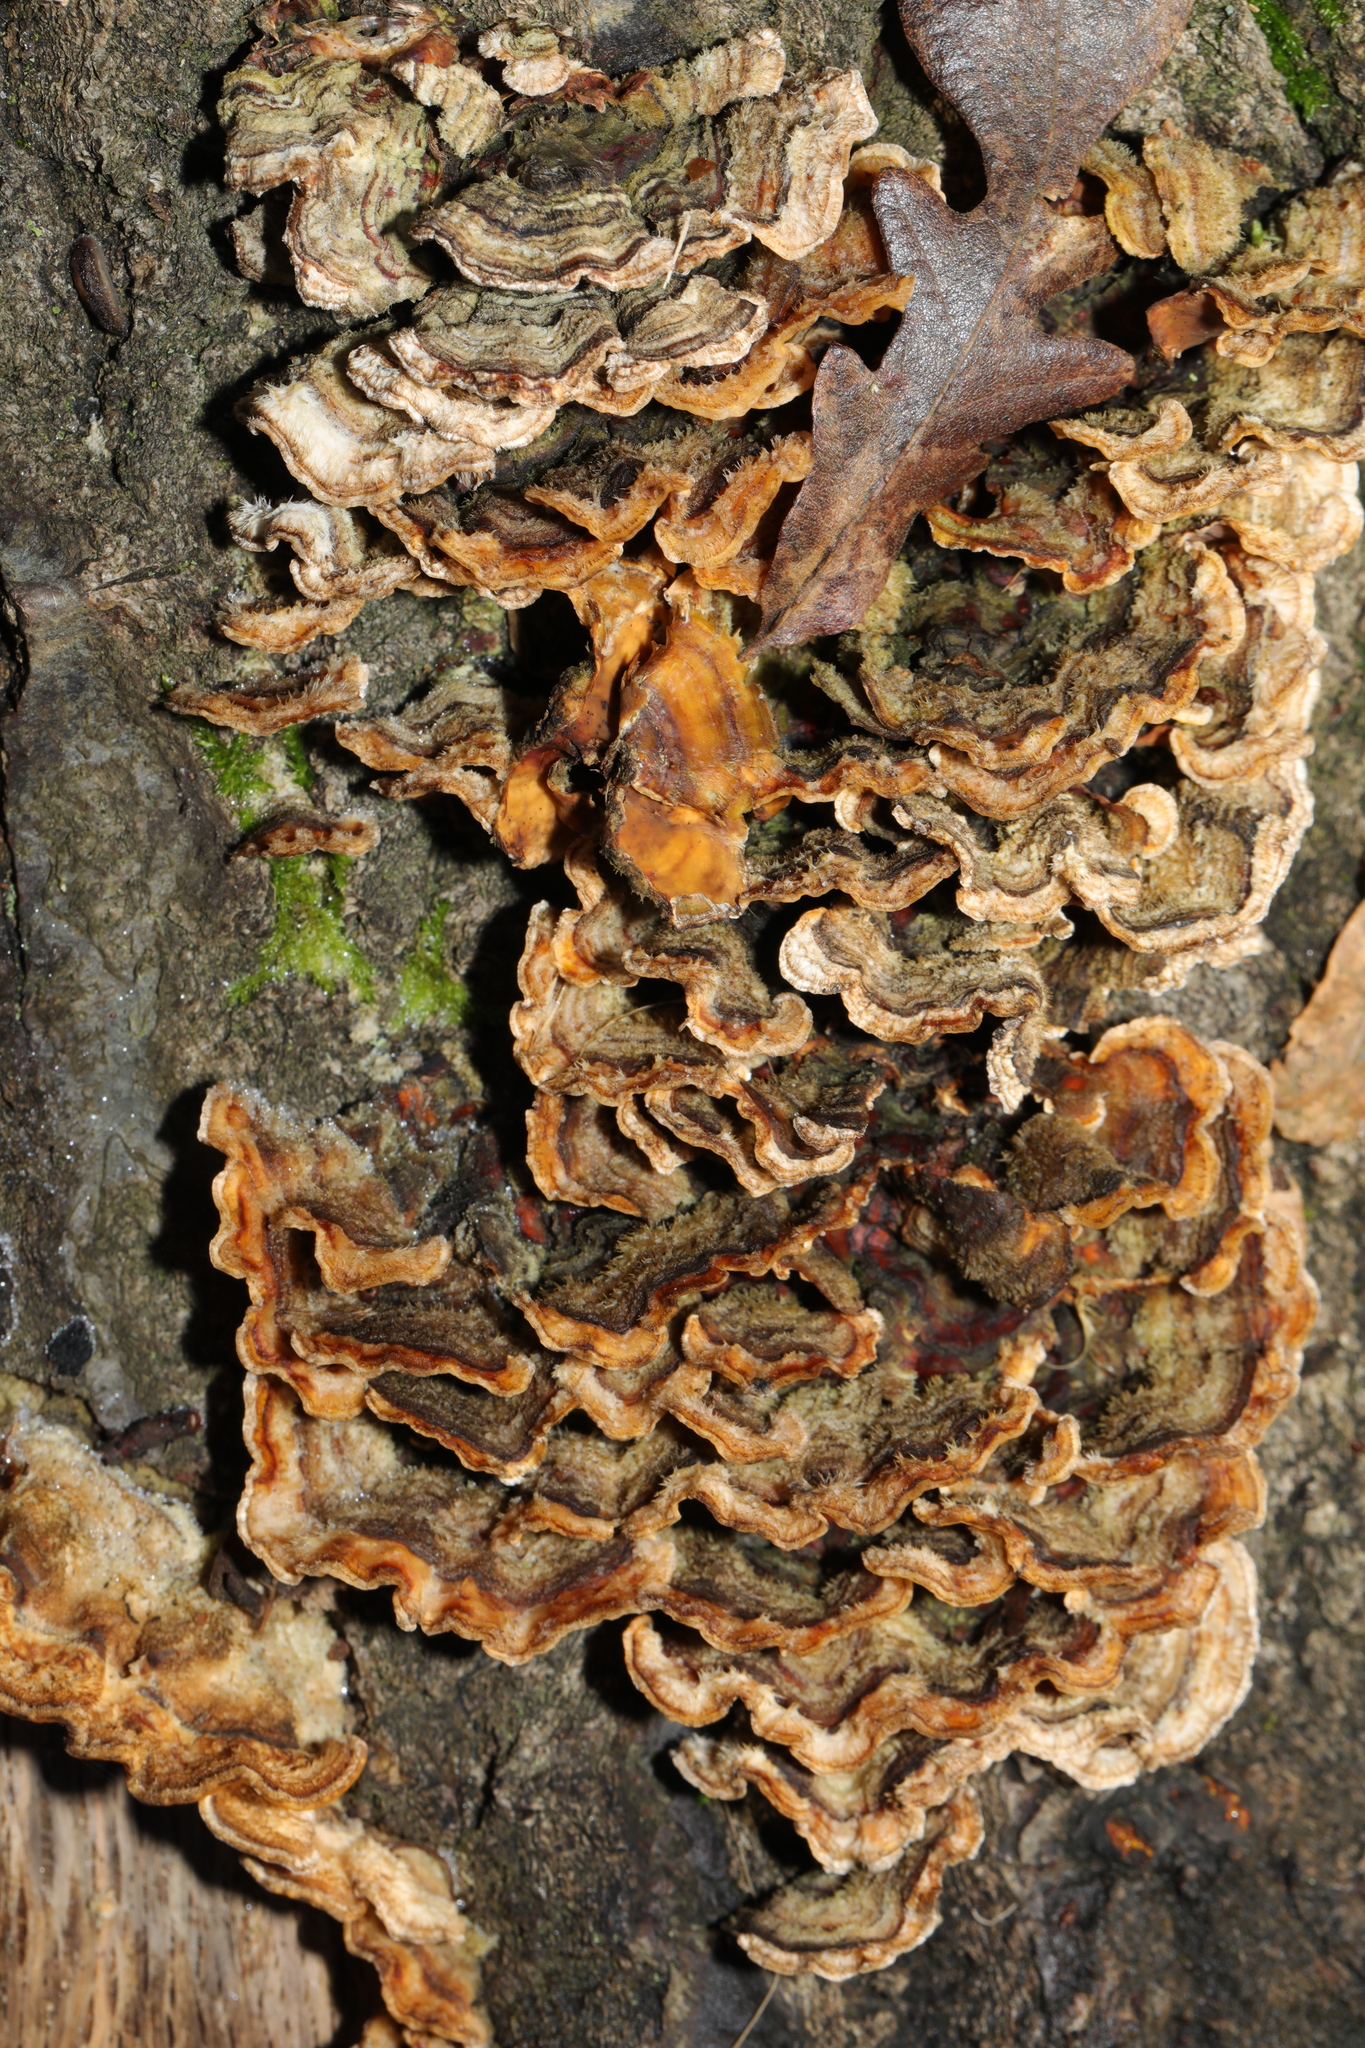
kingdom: Fungi
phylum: Basidiomycota
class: Agaricomycetes
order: Russulales
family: Stereaceae
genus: Stereum
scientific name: Stereum hirsutum
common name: Hairy curtain crust
